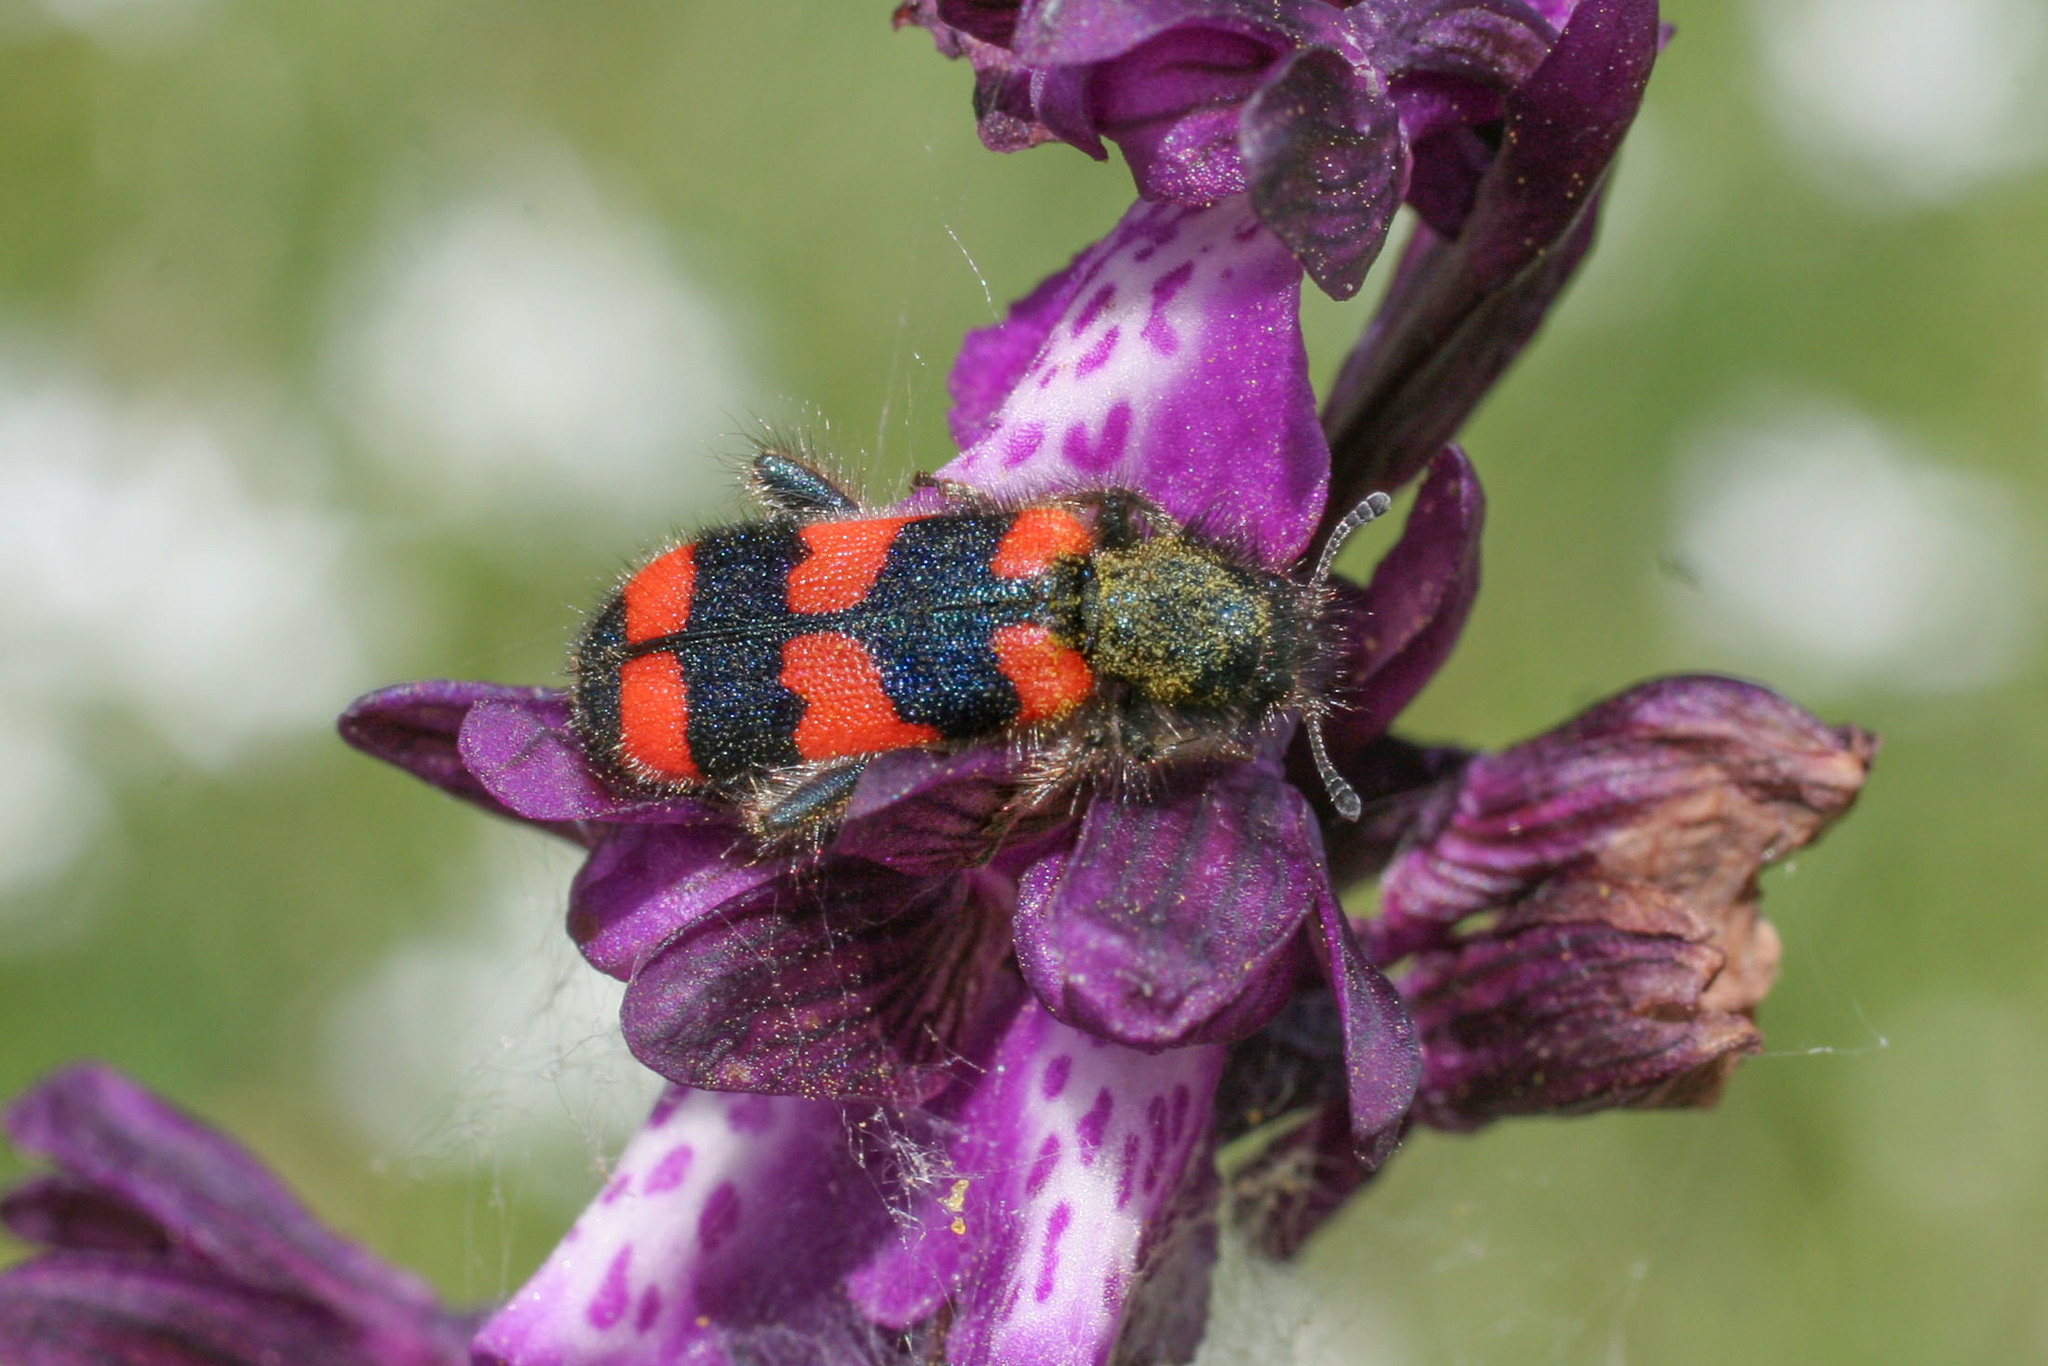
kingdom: Animalia
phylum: Arthropoda
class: Insecta
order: Coleoptera
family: Cleridae
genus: Trichodes
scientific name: Trichodes favarius
